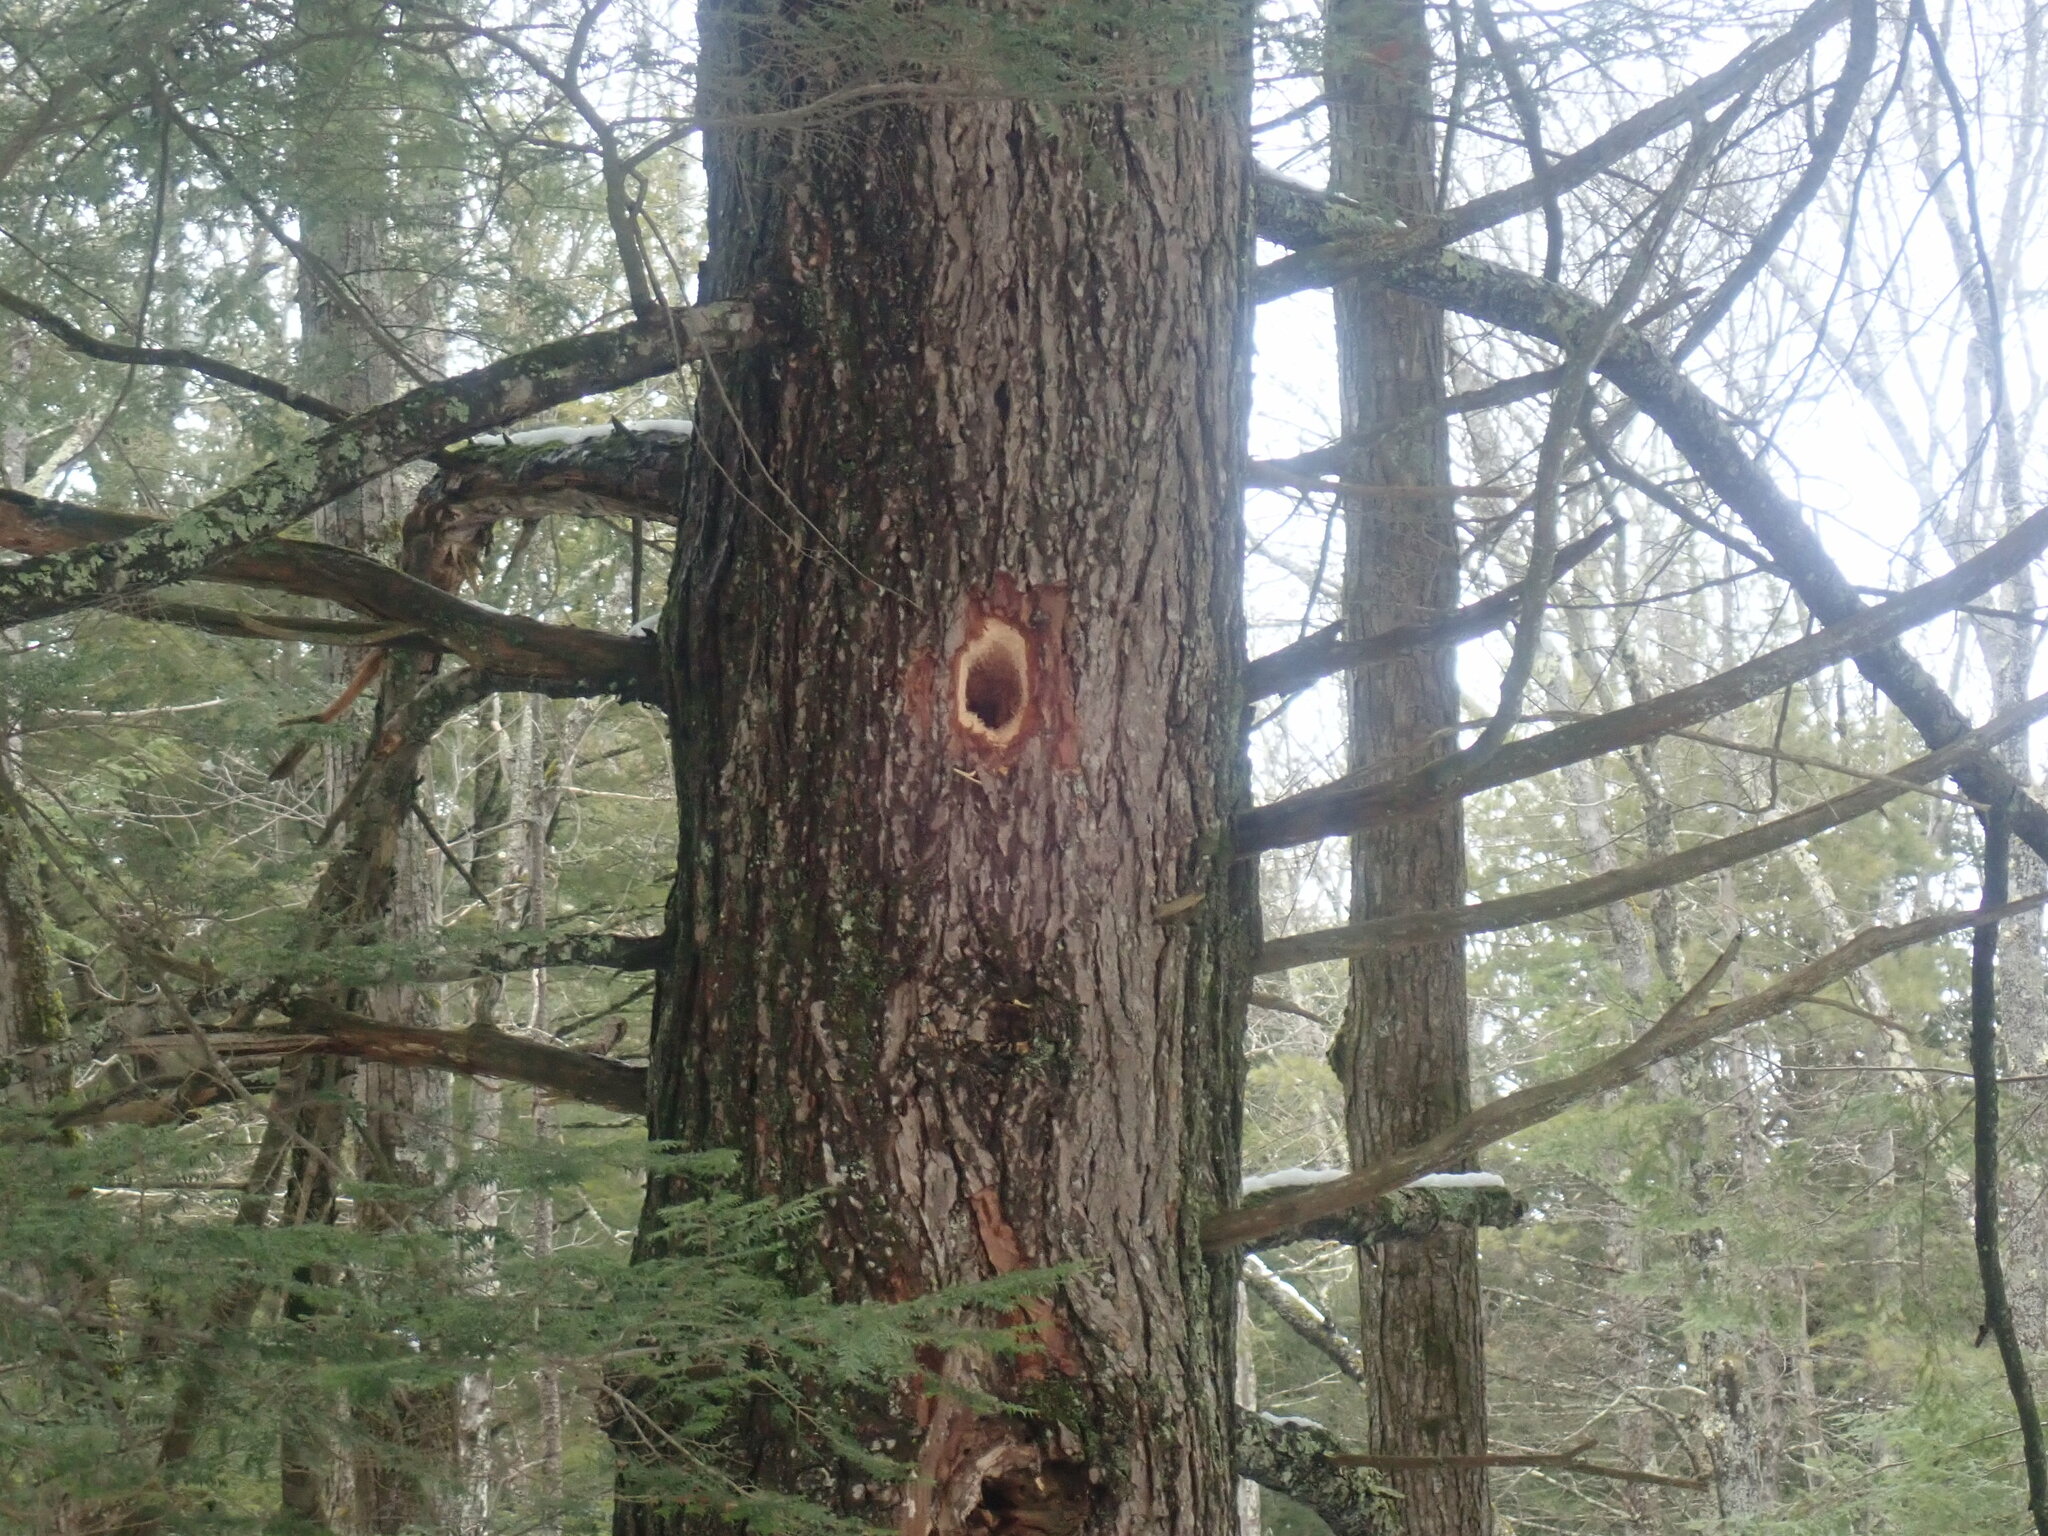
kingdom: Animalia
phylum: Chordata
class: Aves
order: Piciformes
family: Picidae
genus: Dryocopus
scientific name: Dryocopus pileatus
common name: Pileated woodpecker
